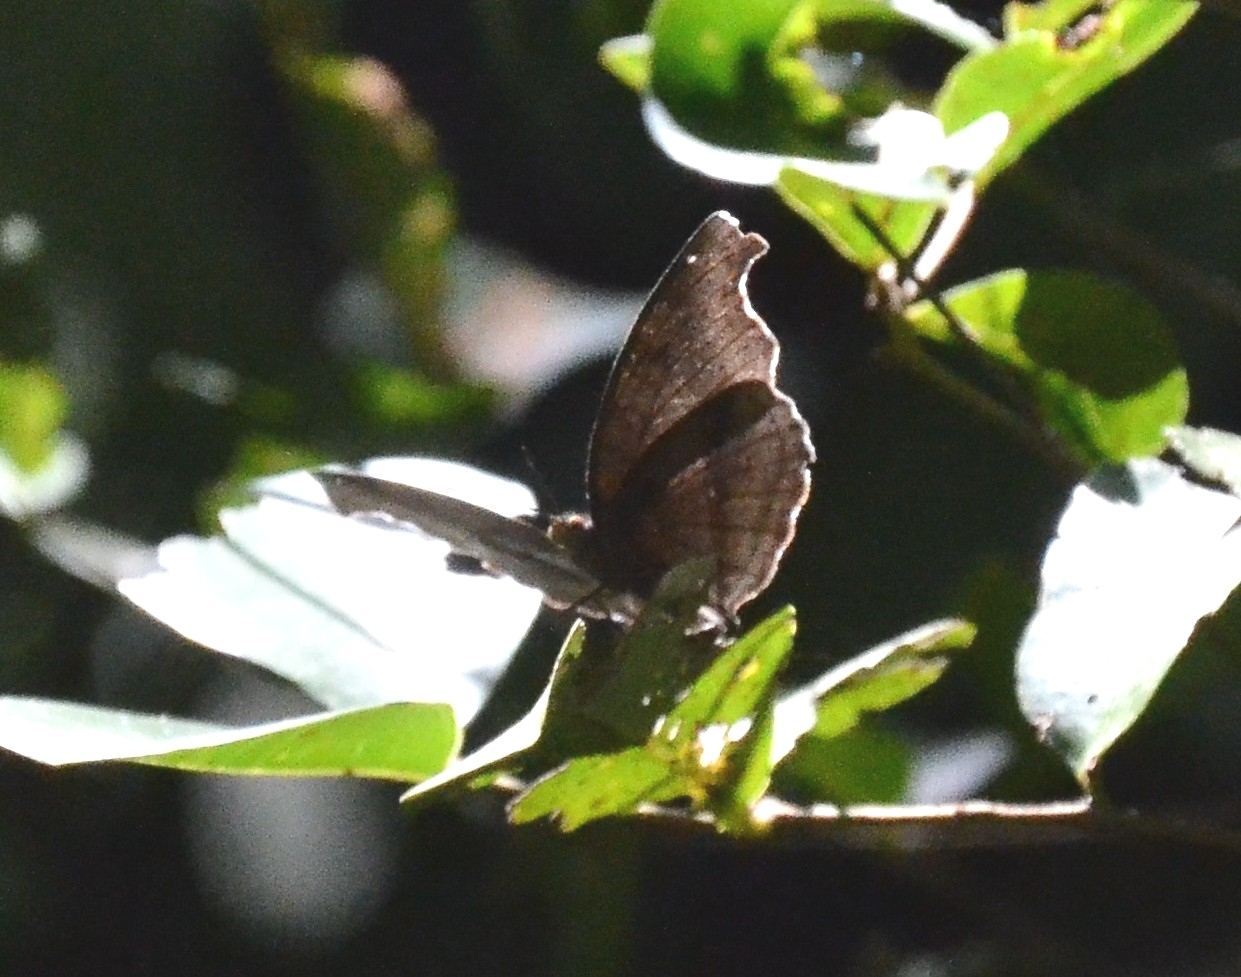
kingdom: Animalia
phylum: Arthropoda
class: Insecta
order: Lepidoptera
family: Nymphalidae
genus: Junonia
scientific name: Junonia iphita
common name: Chocolate pansy
